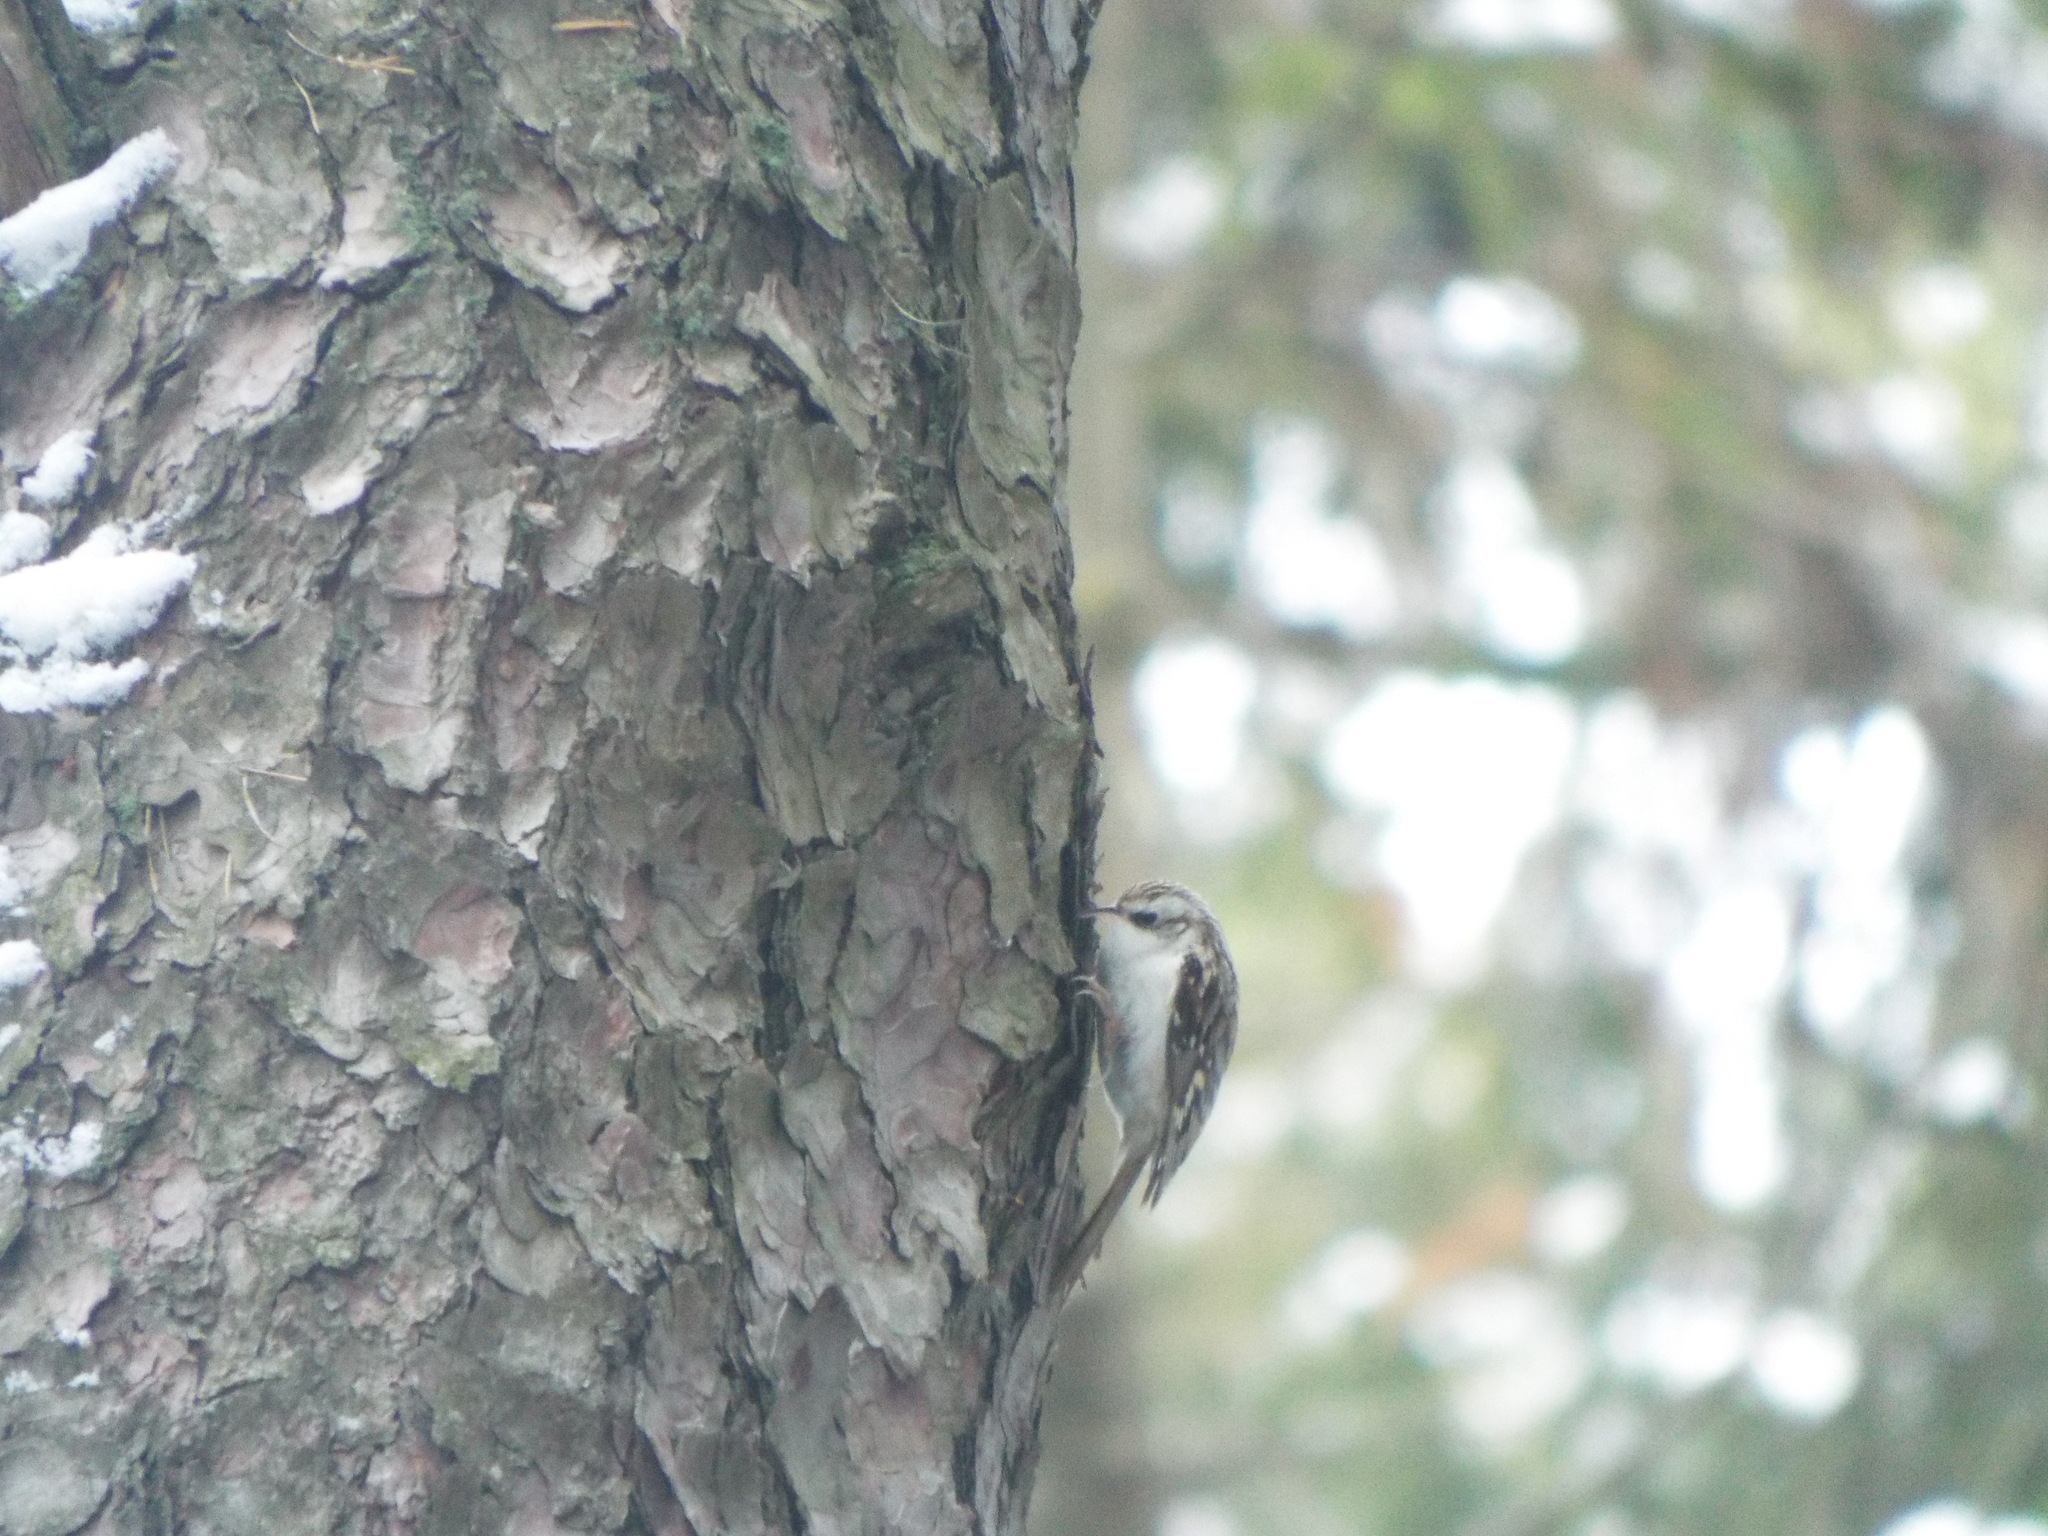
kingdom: Animalia
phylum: Chordata
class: Aves
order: Passeriformes
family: Certhiidae
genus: Certhia
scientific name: Certhia familiaris
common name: Eurasian treecreeper
